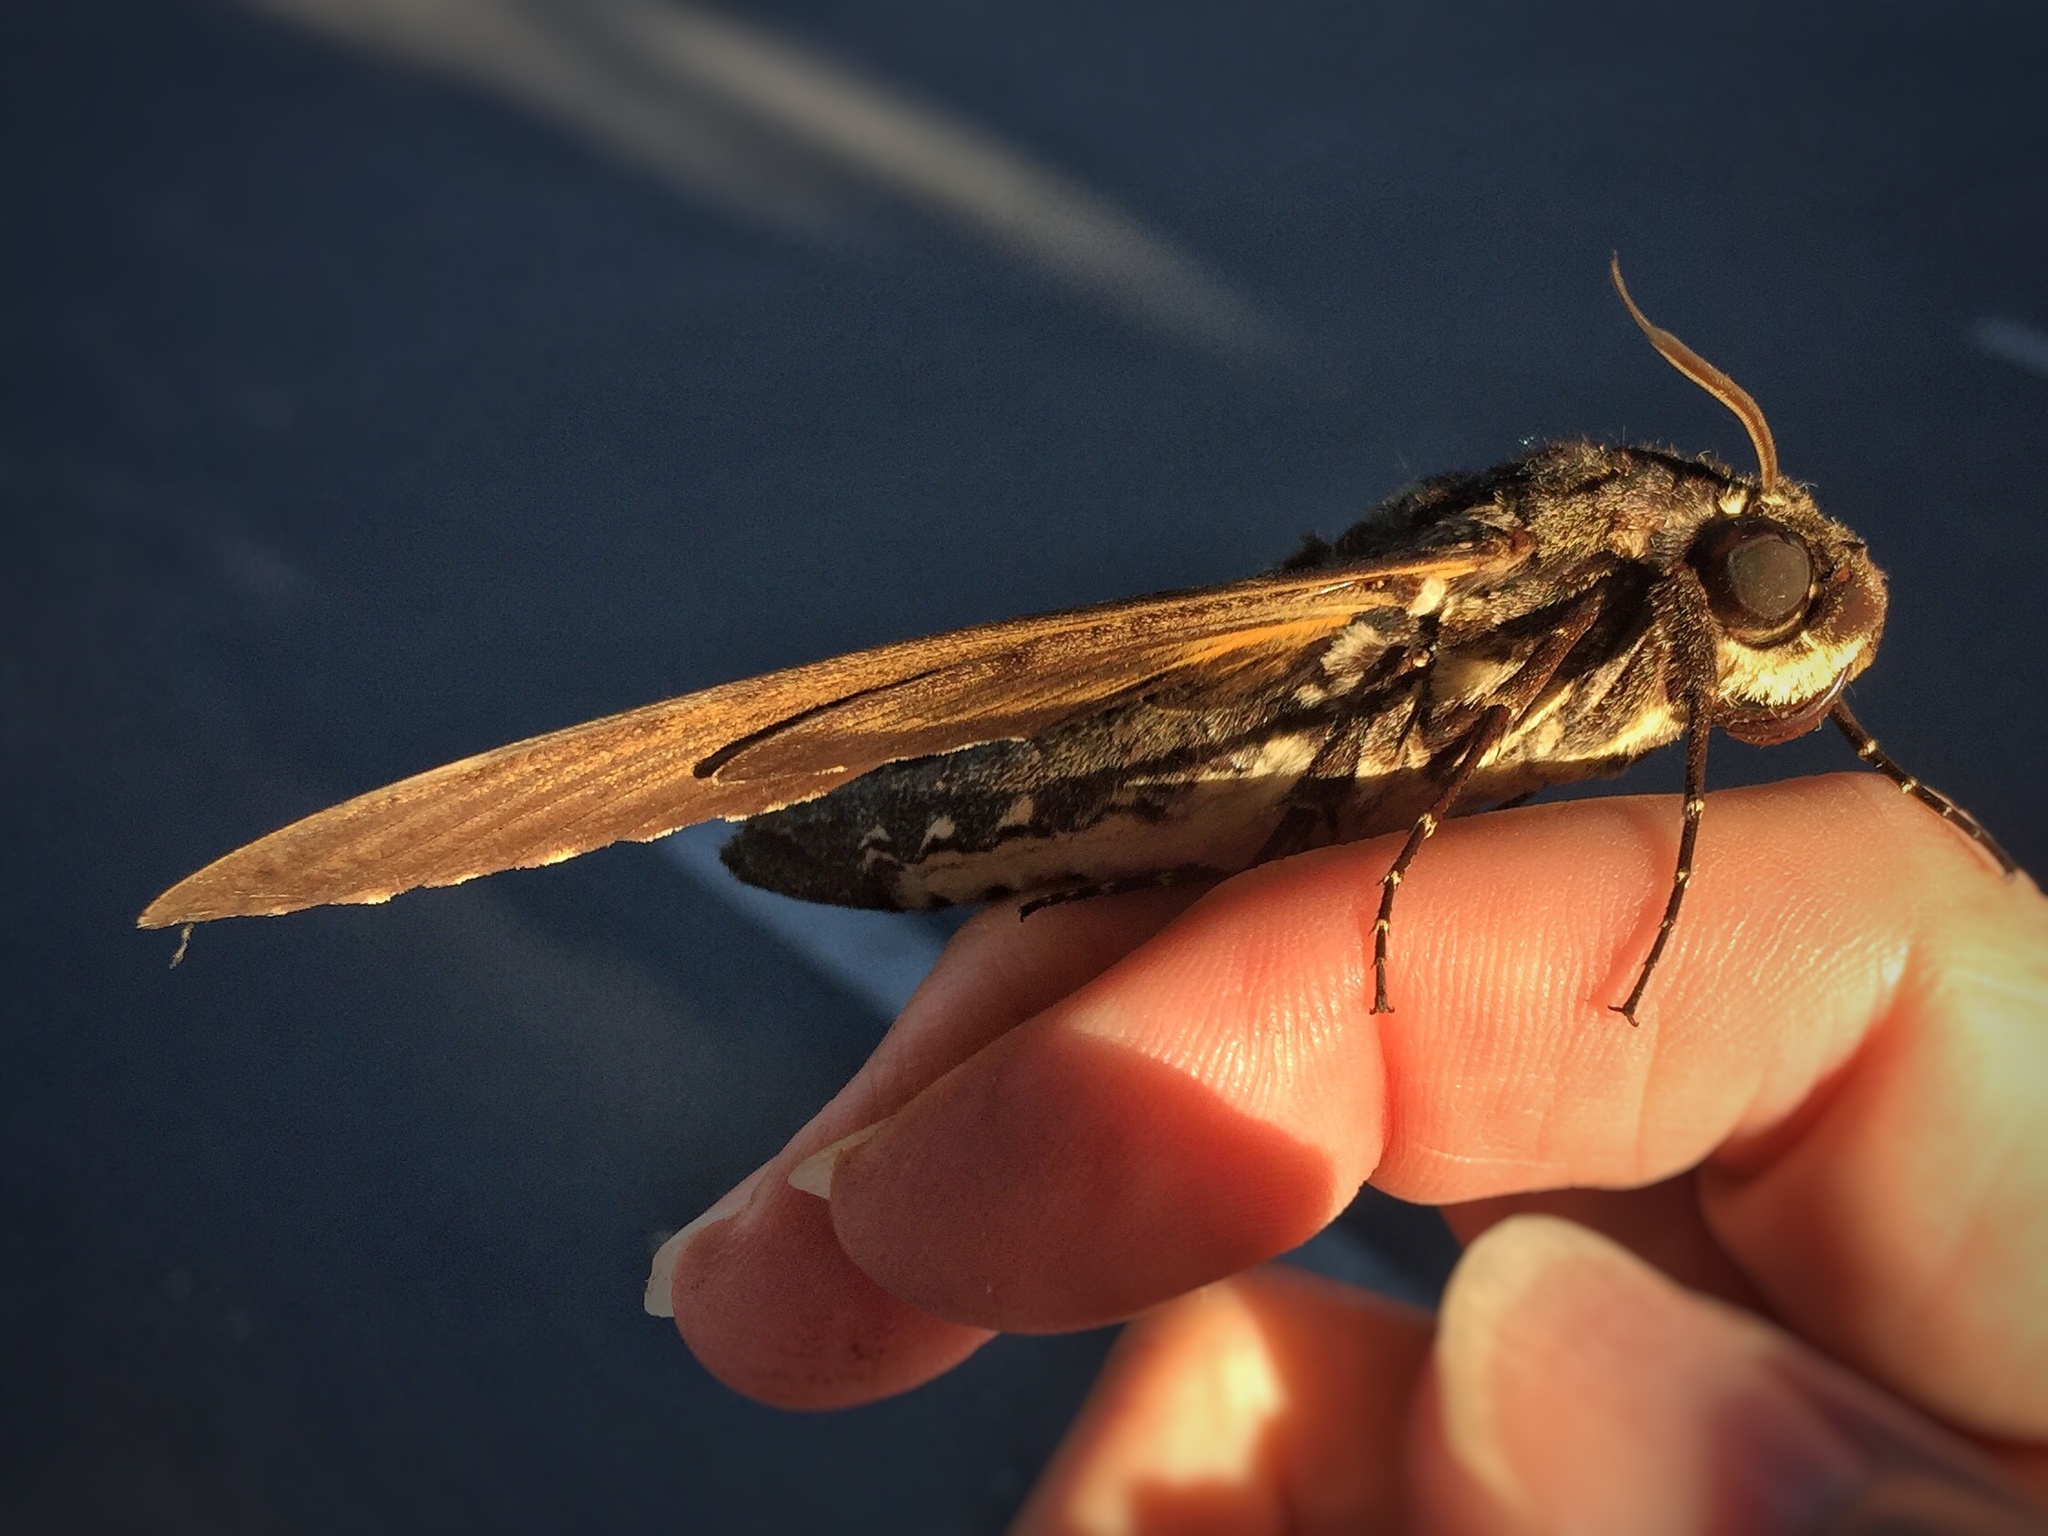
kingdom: Animalia
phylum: Arthropoda
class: Insecta
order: Lepidoptera
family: Sphingidae
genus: Cocytius
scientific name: Cocytius antaeus
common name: Giant sphinx
